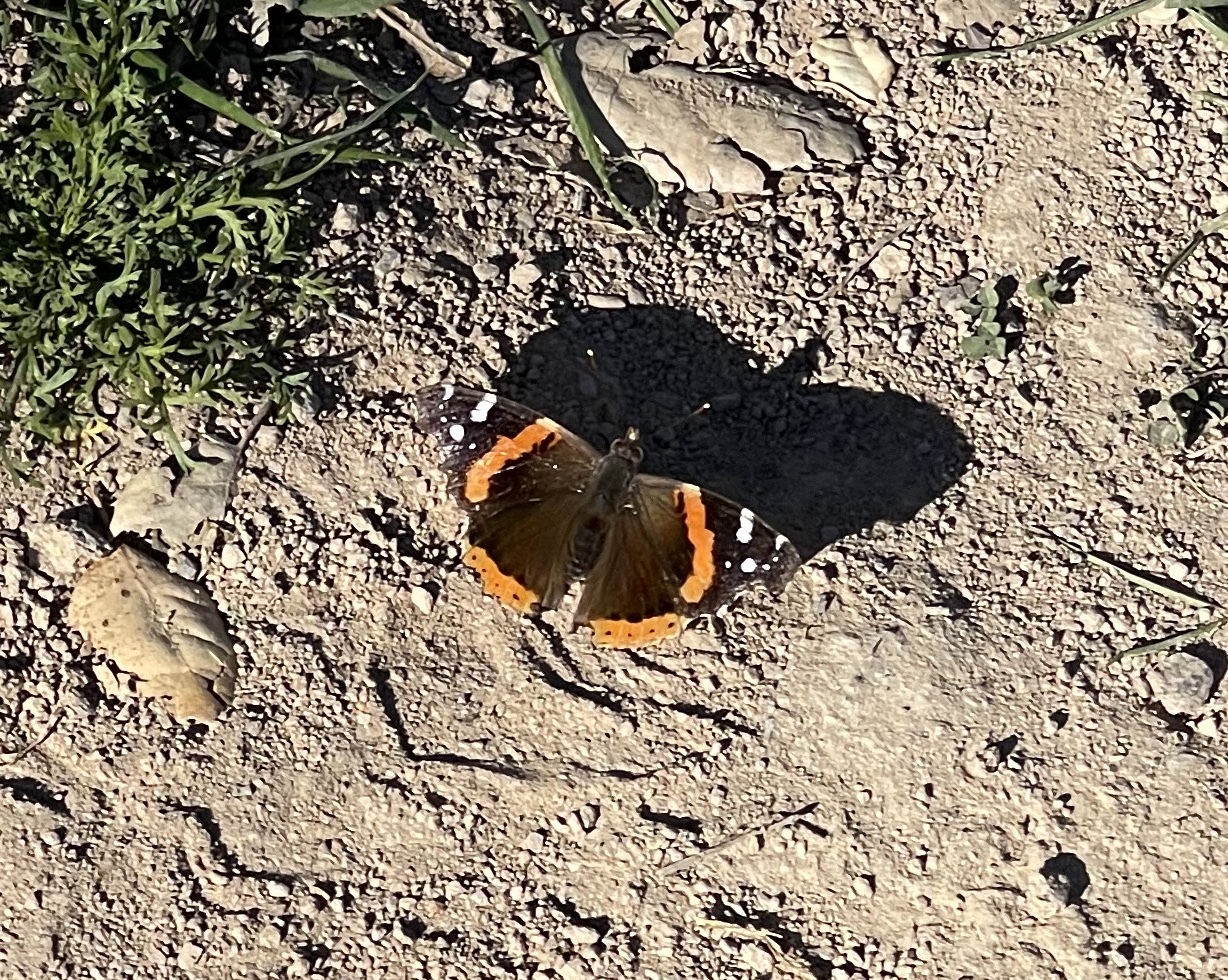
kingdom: Animalia
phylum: Arthropoda
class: Insecta
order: Lepidoptera
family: Nymphalidae
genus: Vanessa
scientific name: Vanessa atalanta
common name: Red admiral
